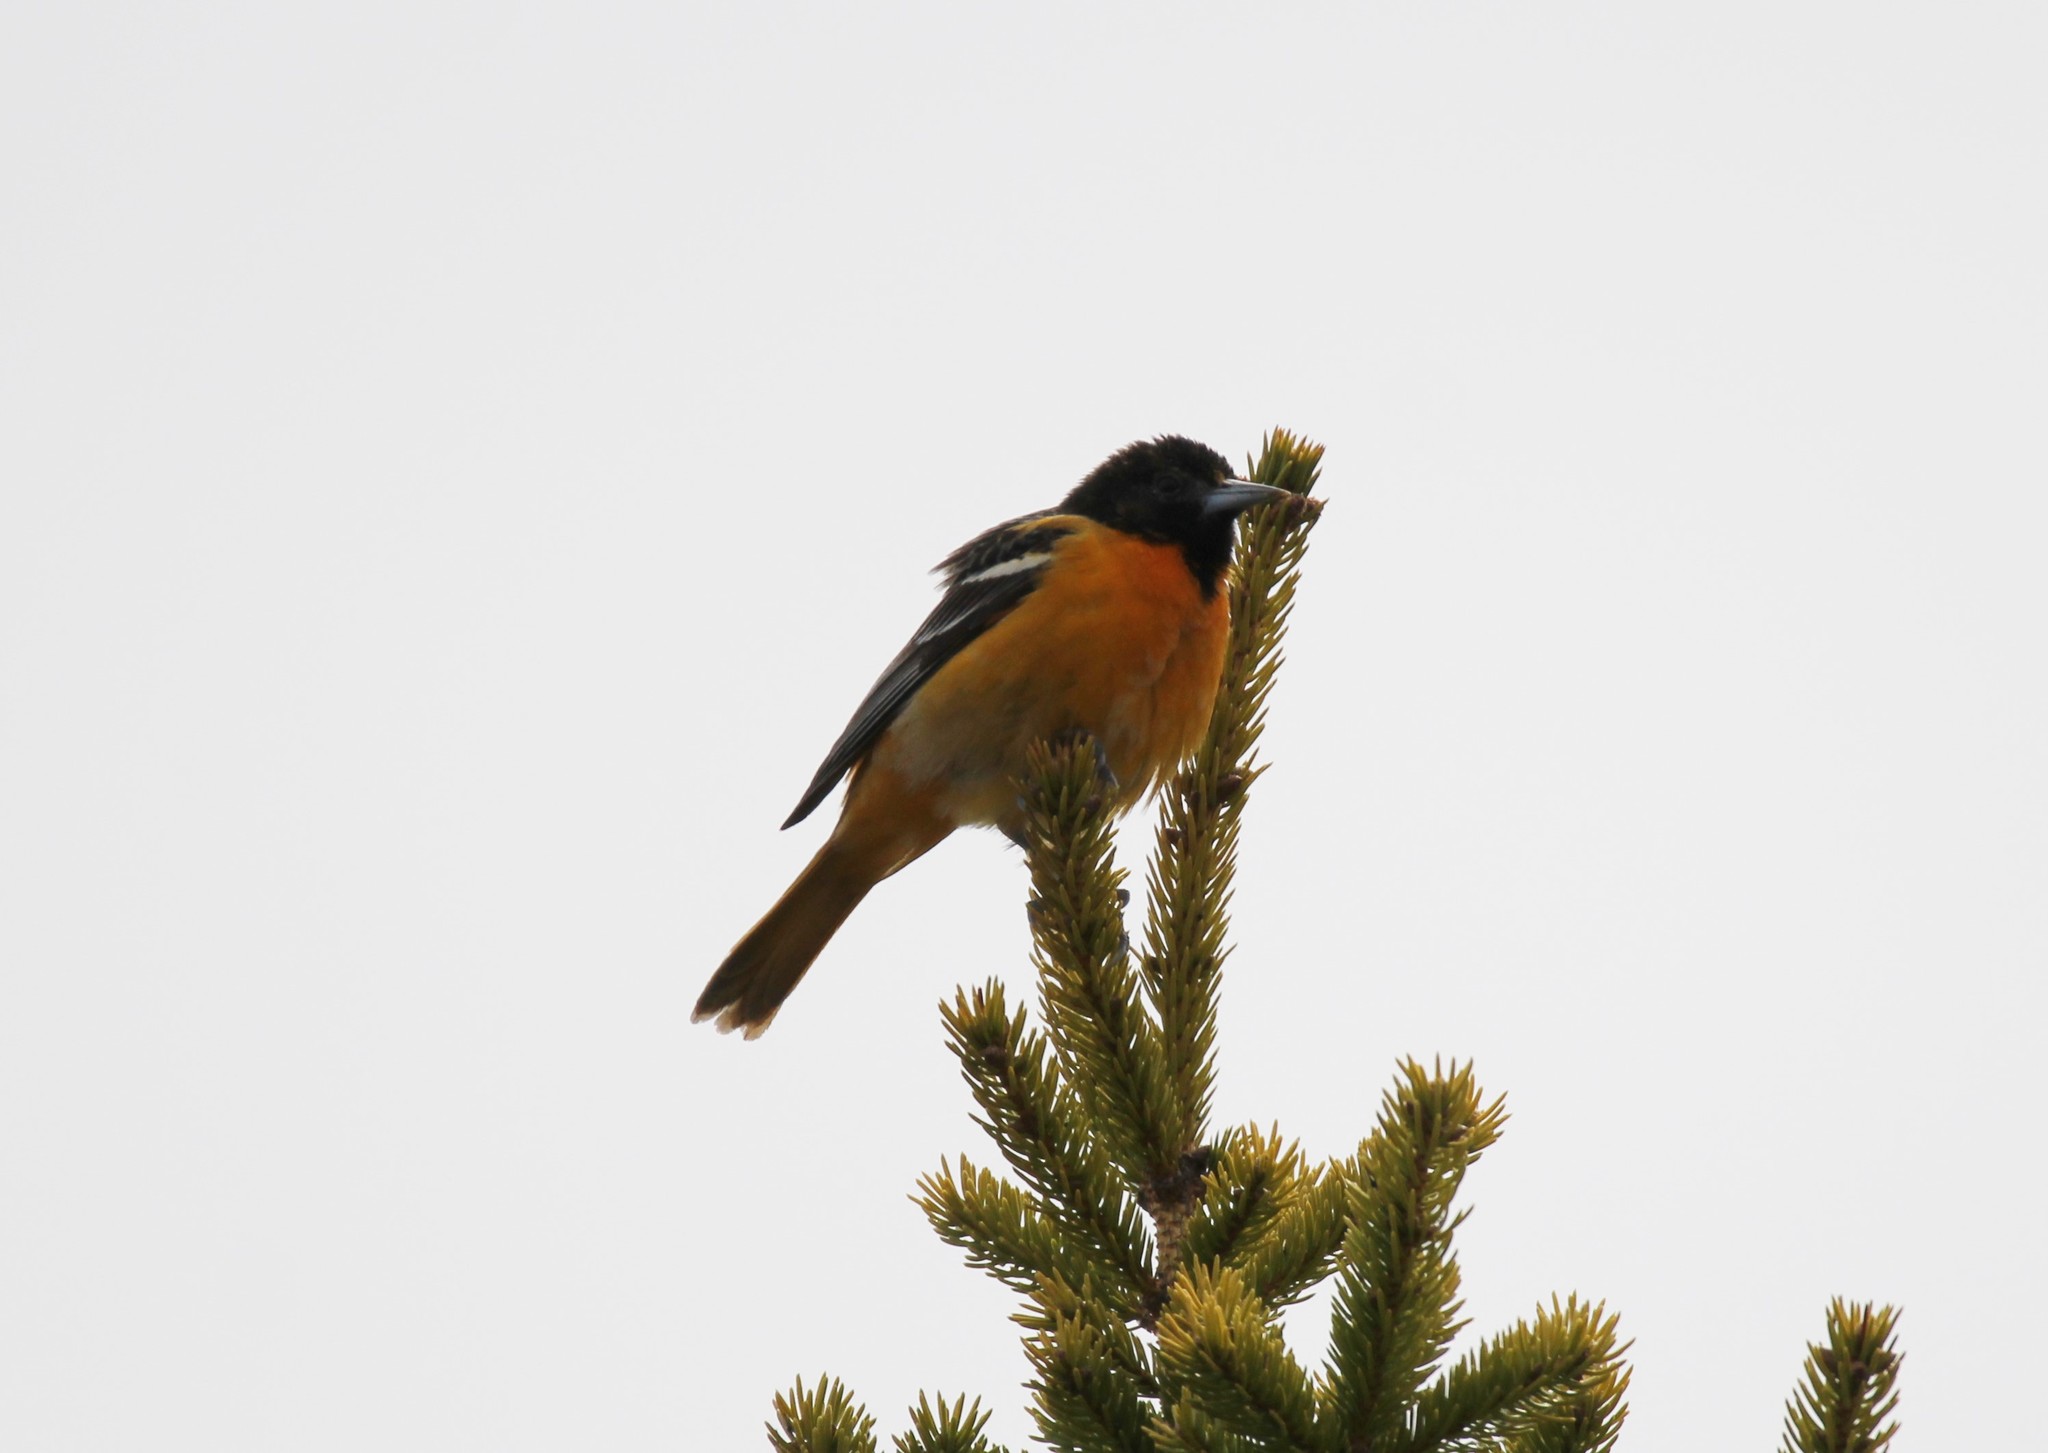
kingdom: Animalia
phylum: Chordata
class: Aves
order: Passeriformes
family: Icteridae
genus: Icterus
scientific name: Icterus galbula
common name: Baltimore oriole
